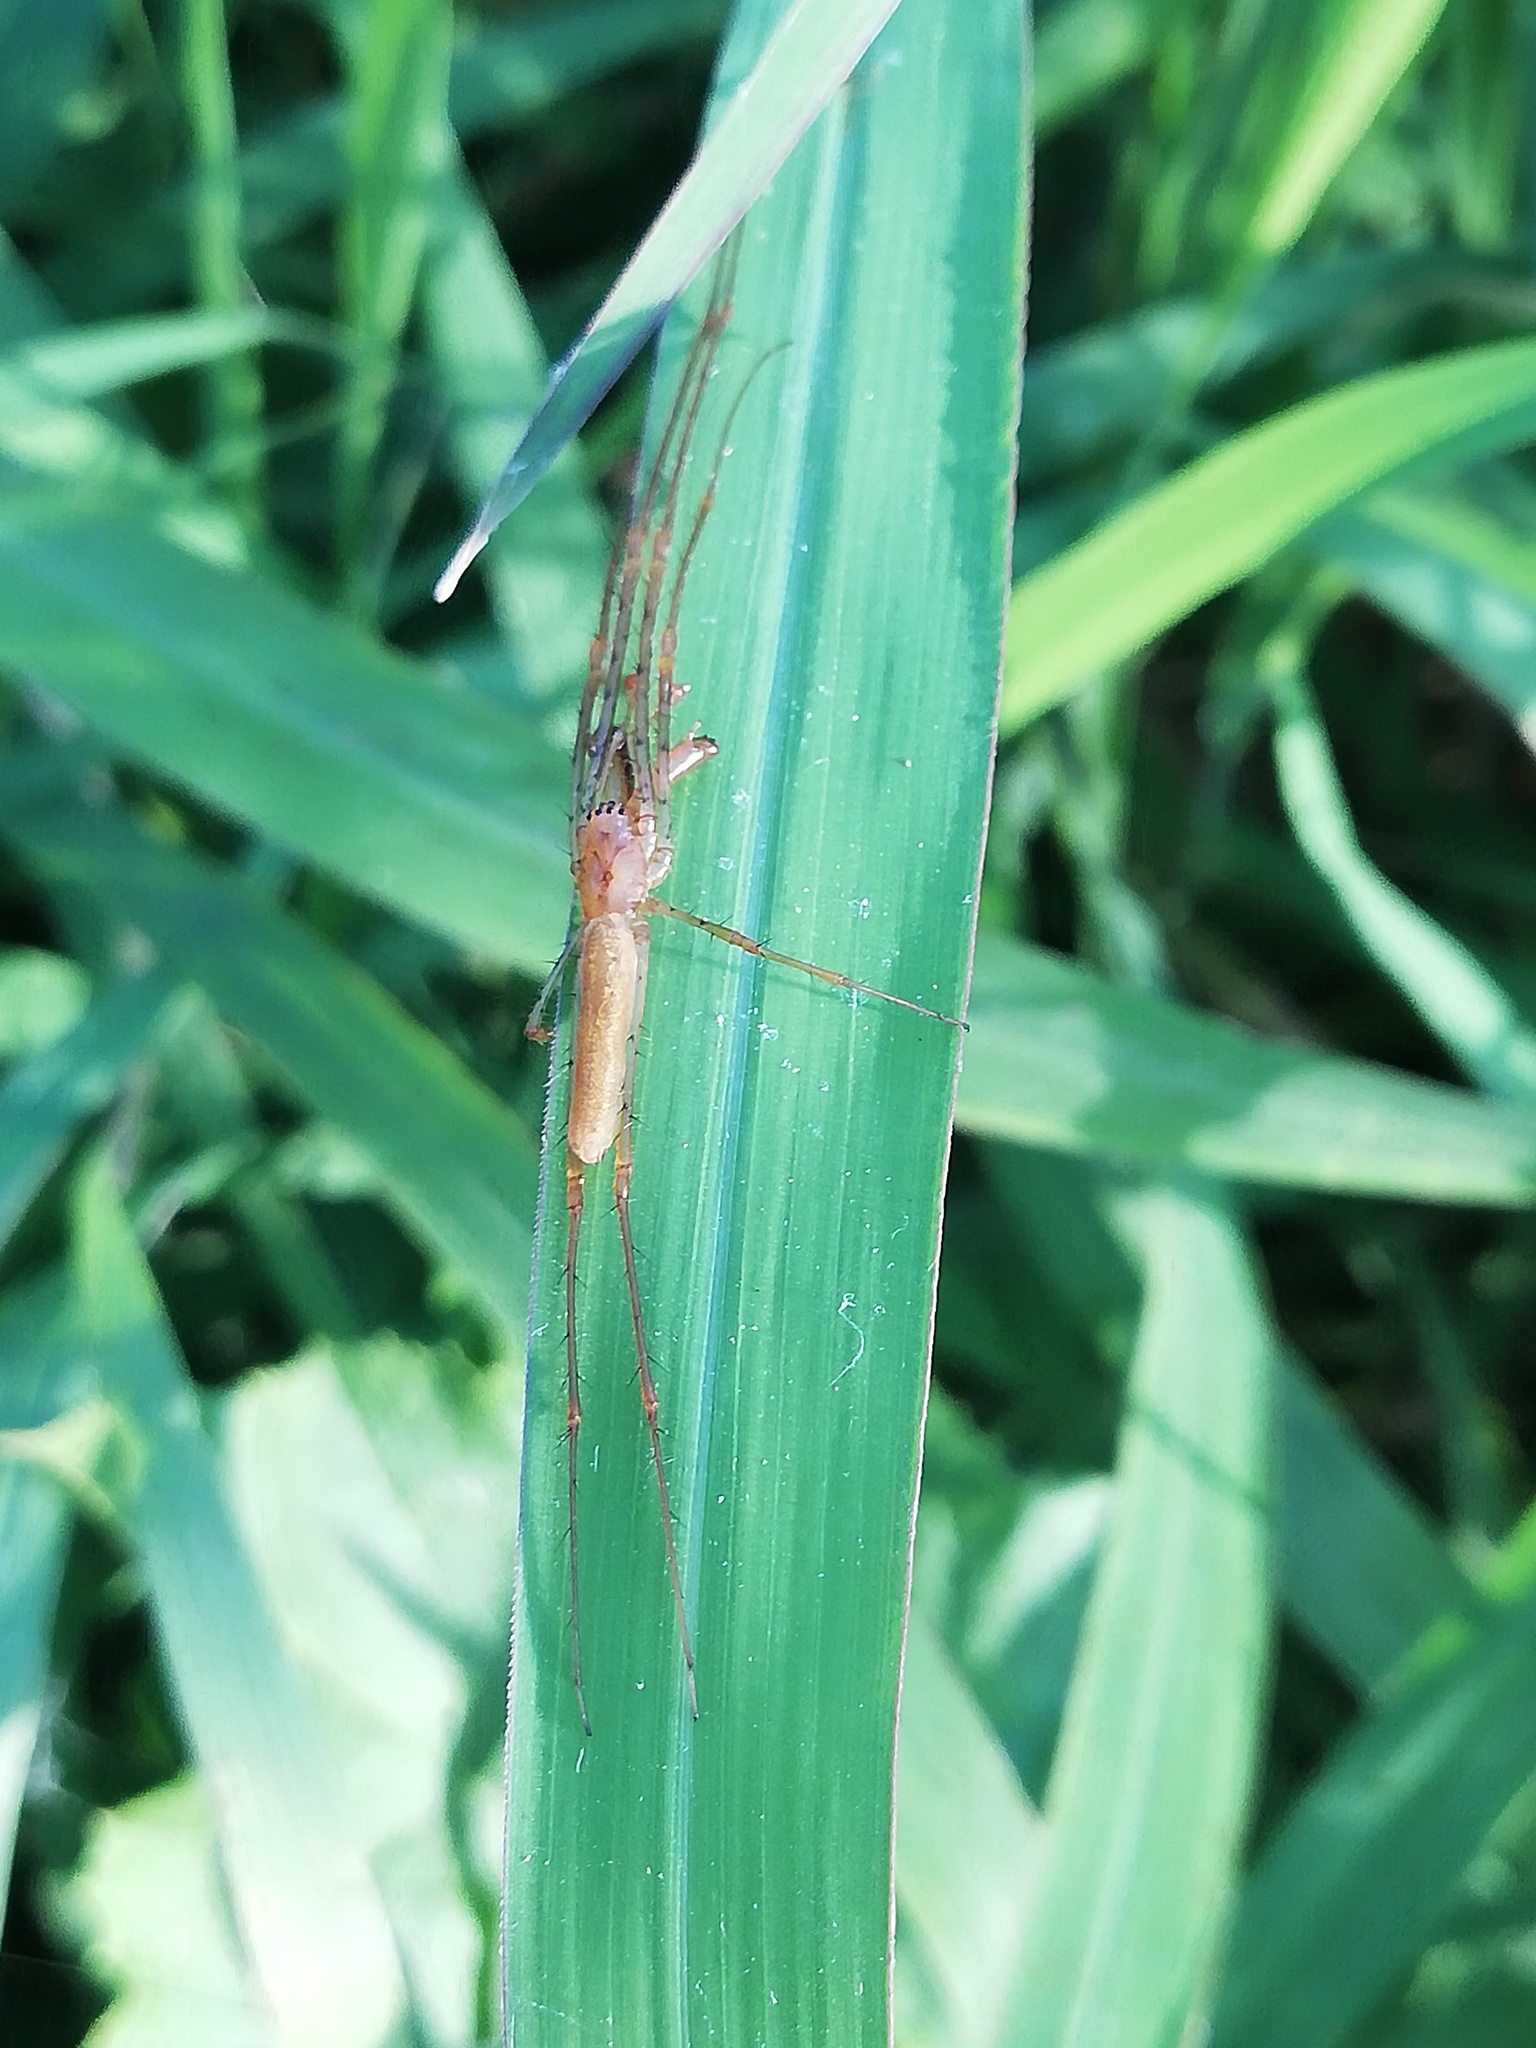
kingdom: Animalia
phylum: Arthropoda
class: Arachnida
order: Araneae
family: Tetragnathidae
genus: Tetragnatha
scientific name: Tetragnatha laboriosa
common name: Longjawed orb weavers
